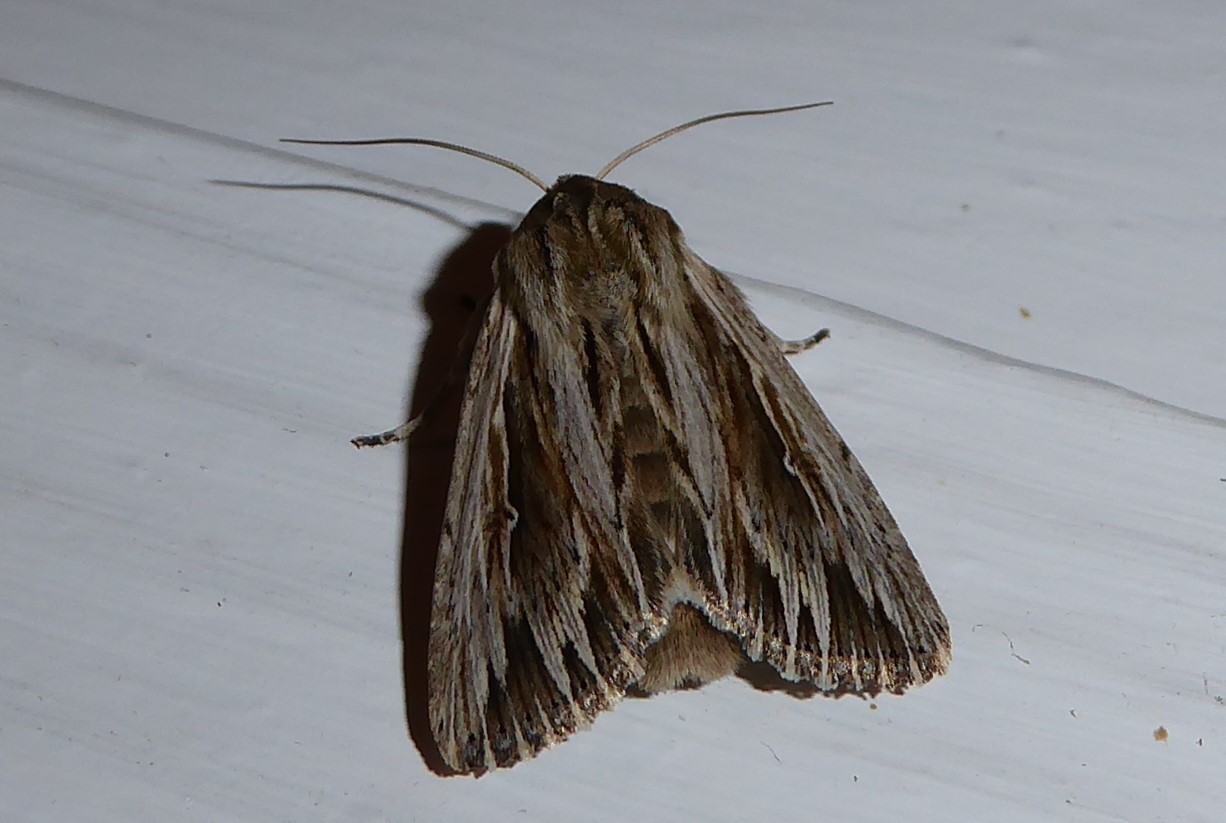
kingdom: Animalia
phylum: Arthropoda
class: Insecta
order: Lepidoptera
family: Noctuidae
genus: Persectania
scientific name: Persectania aversa
